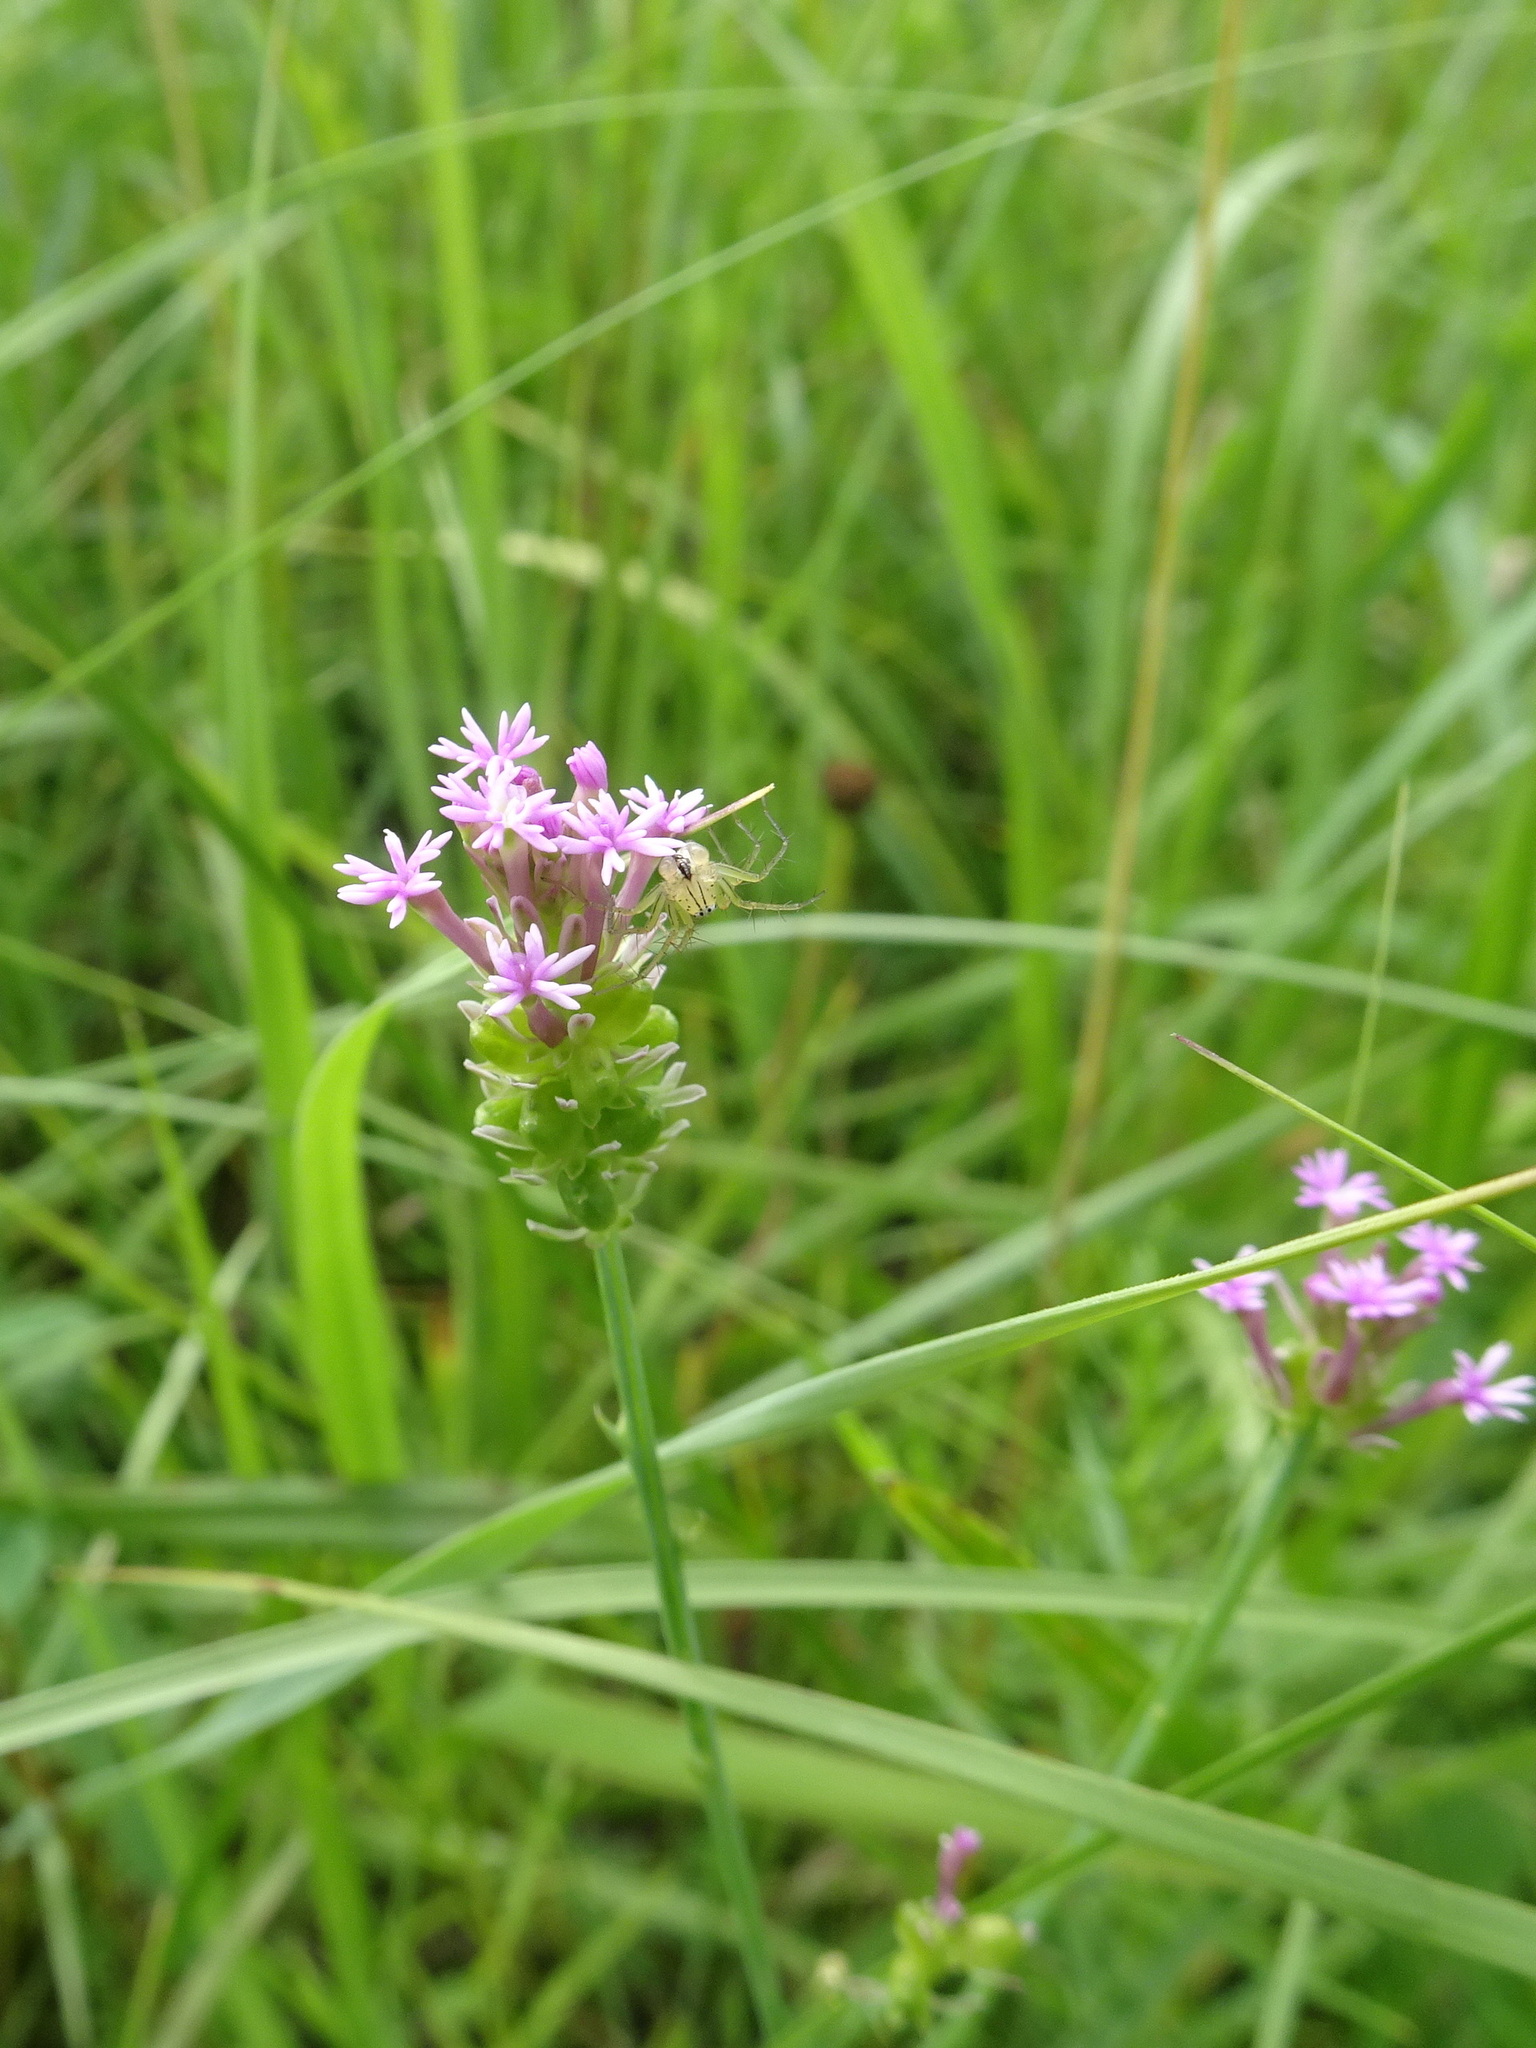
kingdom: Plantae
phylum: Tracheophyta
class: Magnoliopsida
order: Fabales
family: Polygalaceae
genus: Polygala
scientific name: Polygala incarnata
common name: Pink milkwort
